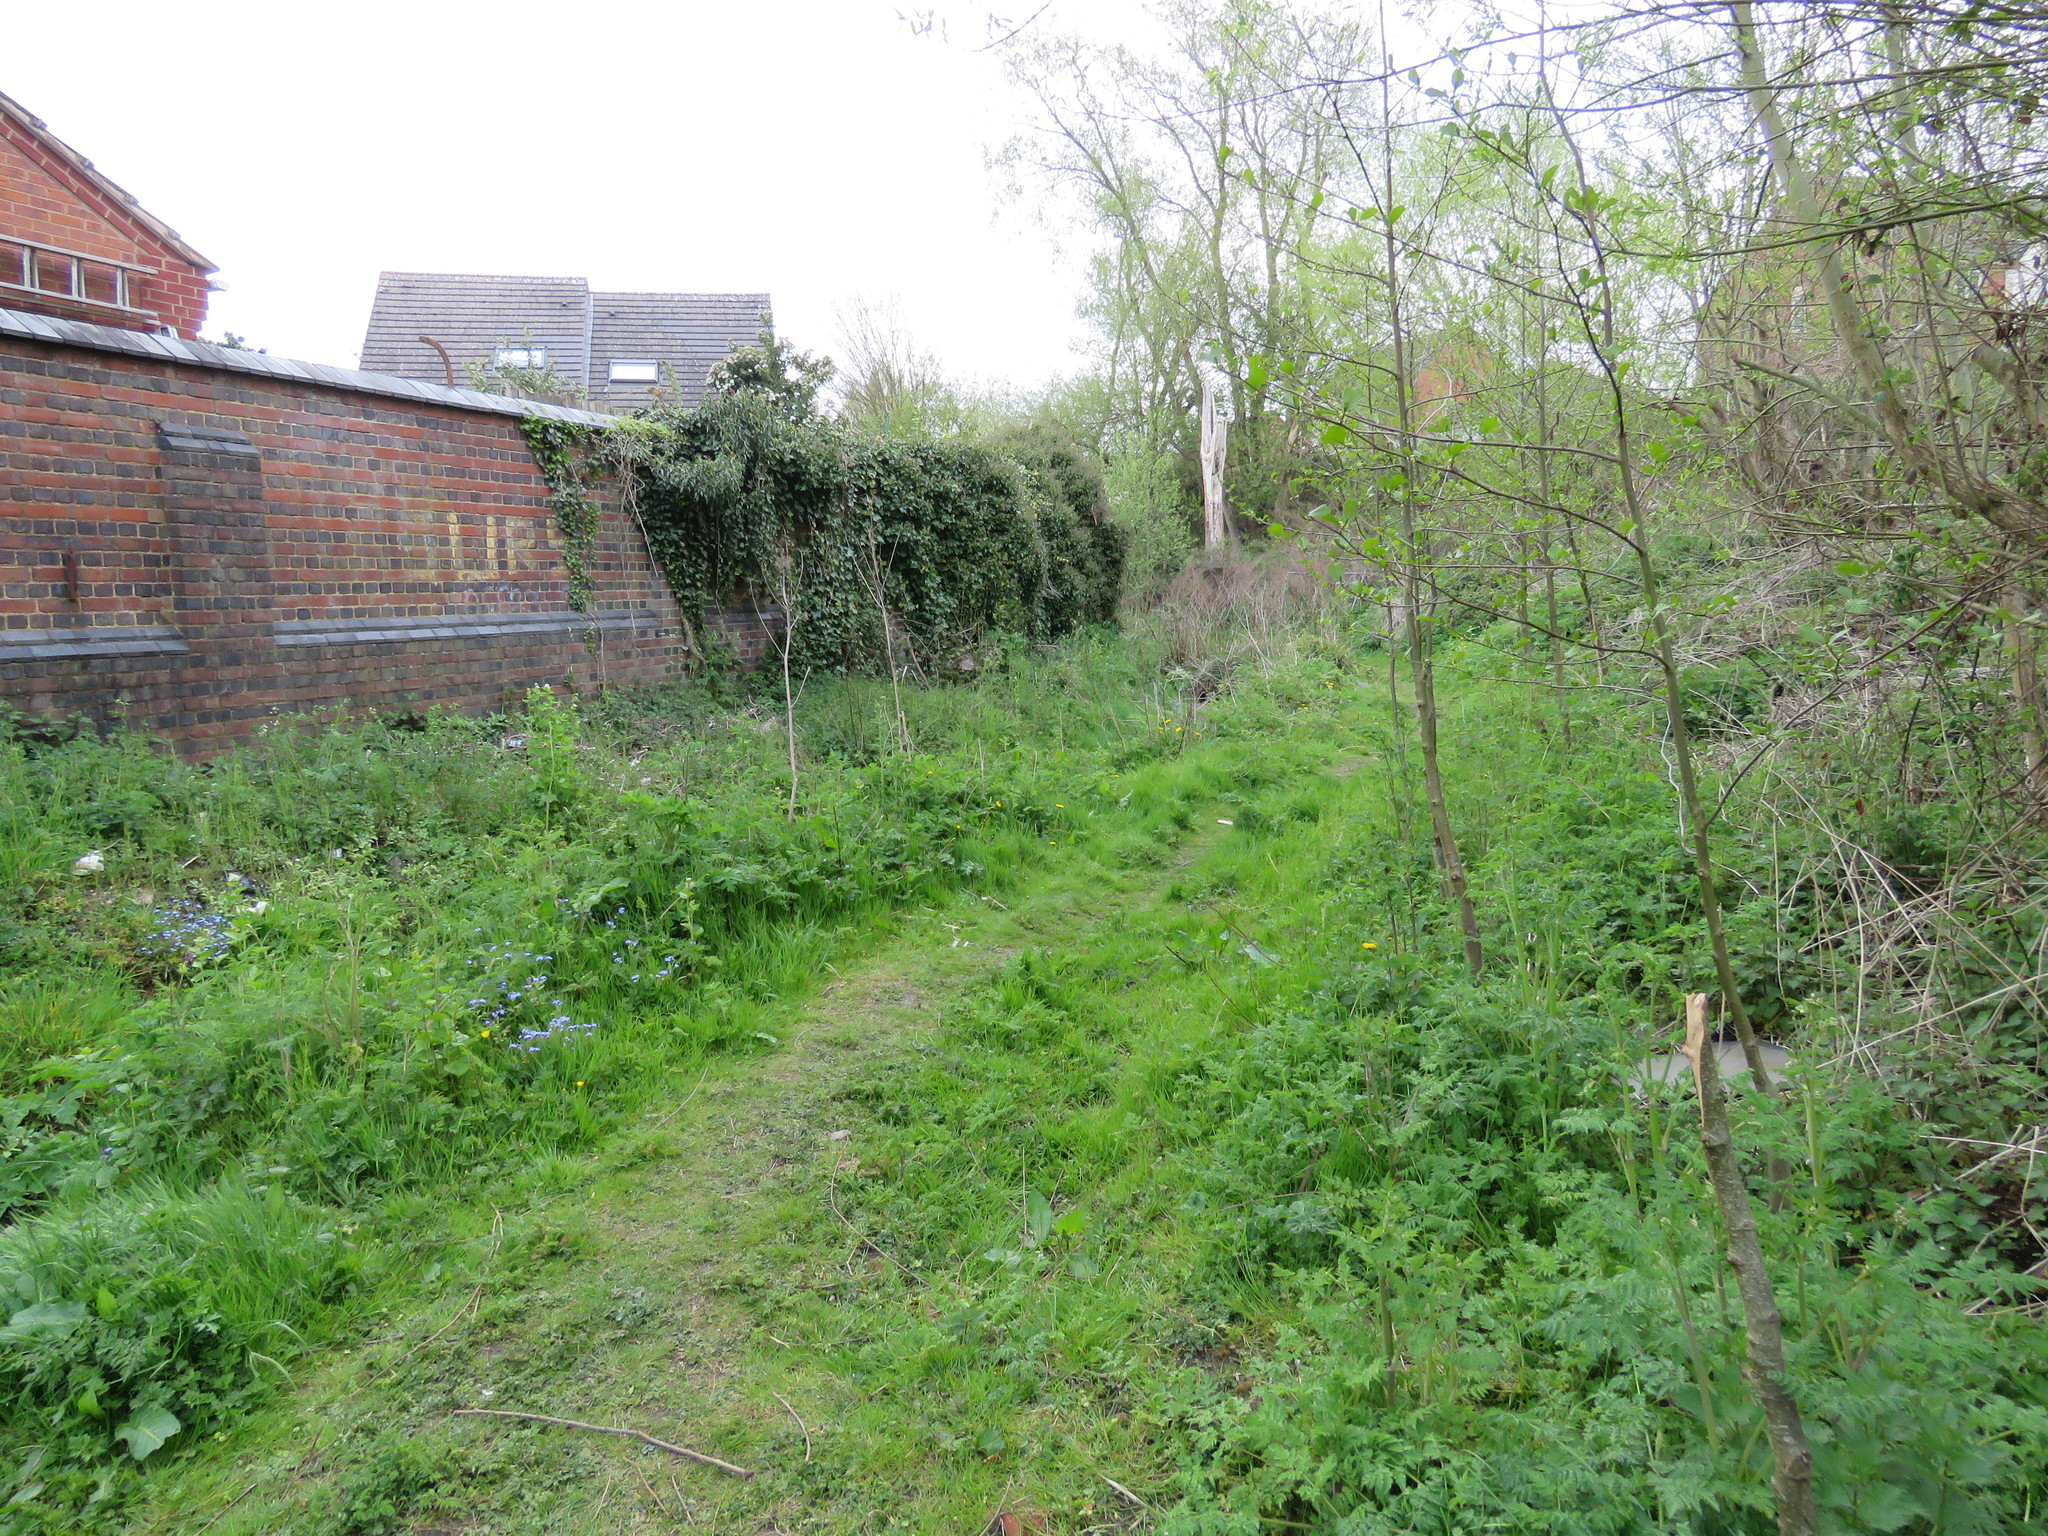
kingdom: Plantae
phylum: Tracheophyta
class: Magnoliopsida
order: Apiales
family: Apiaceae
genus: Anthriscus
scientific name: Anthriscus sylvestris
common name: Cow parsley
